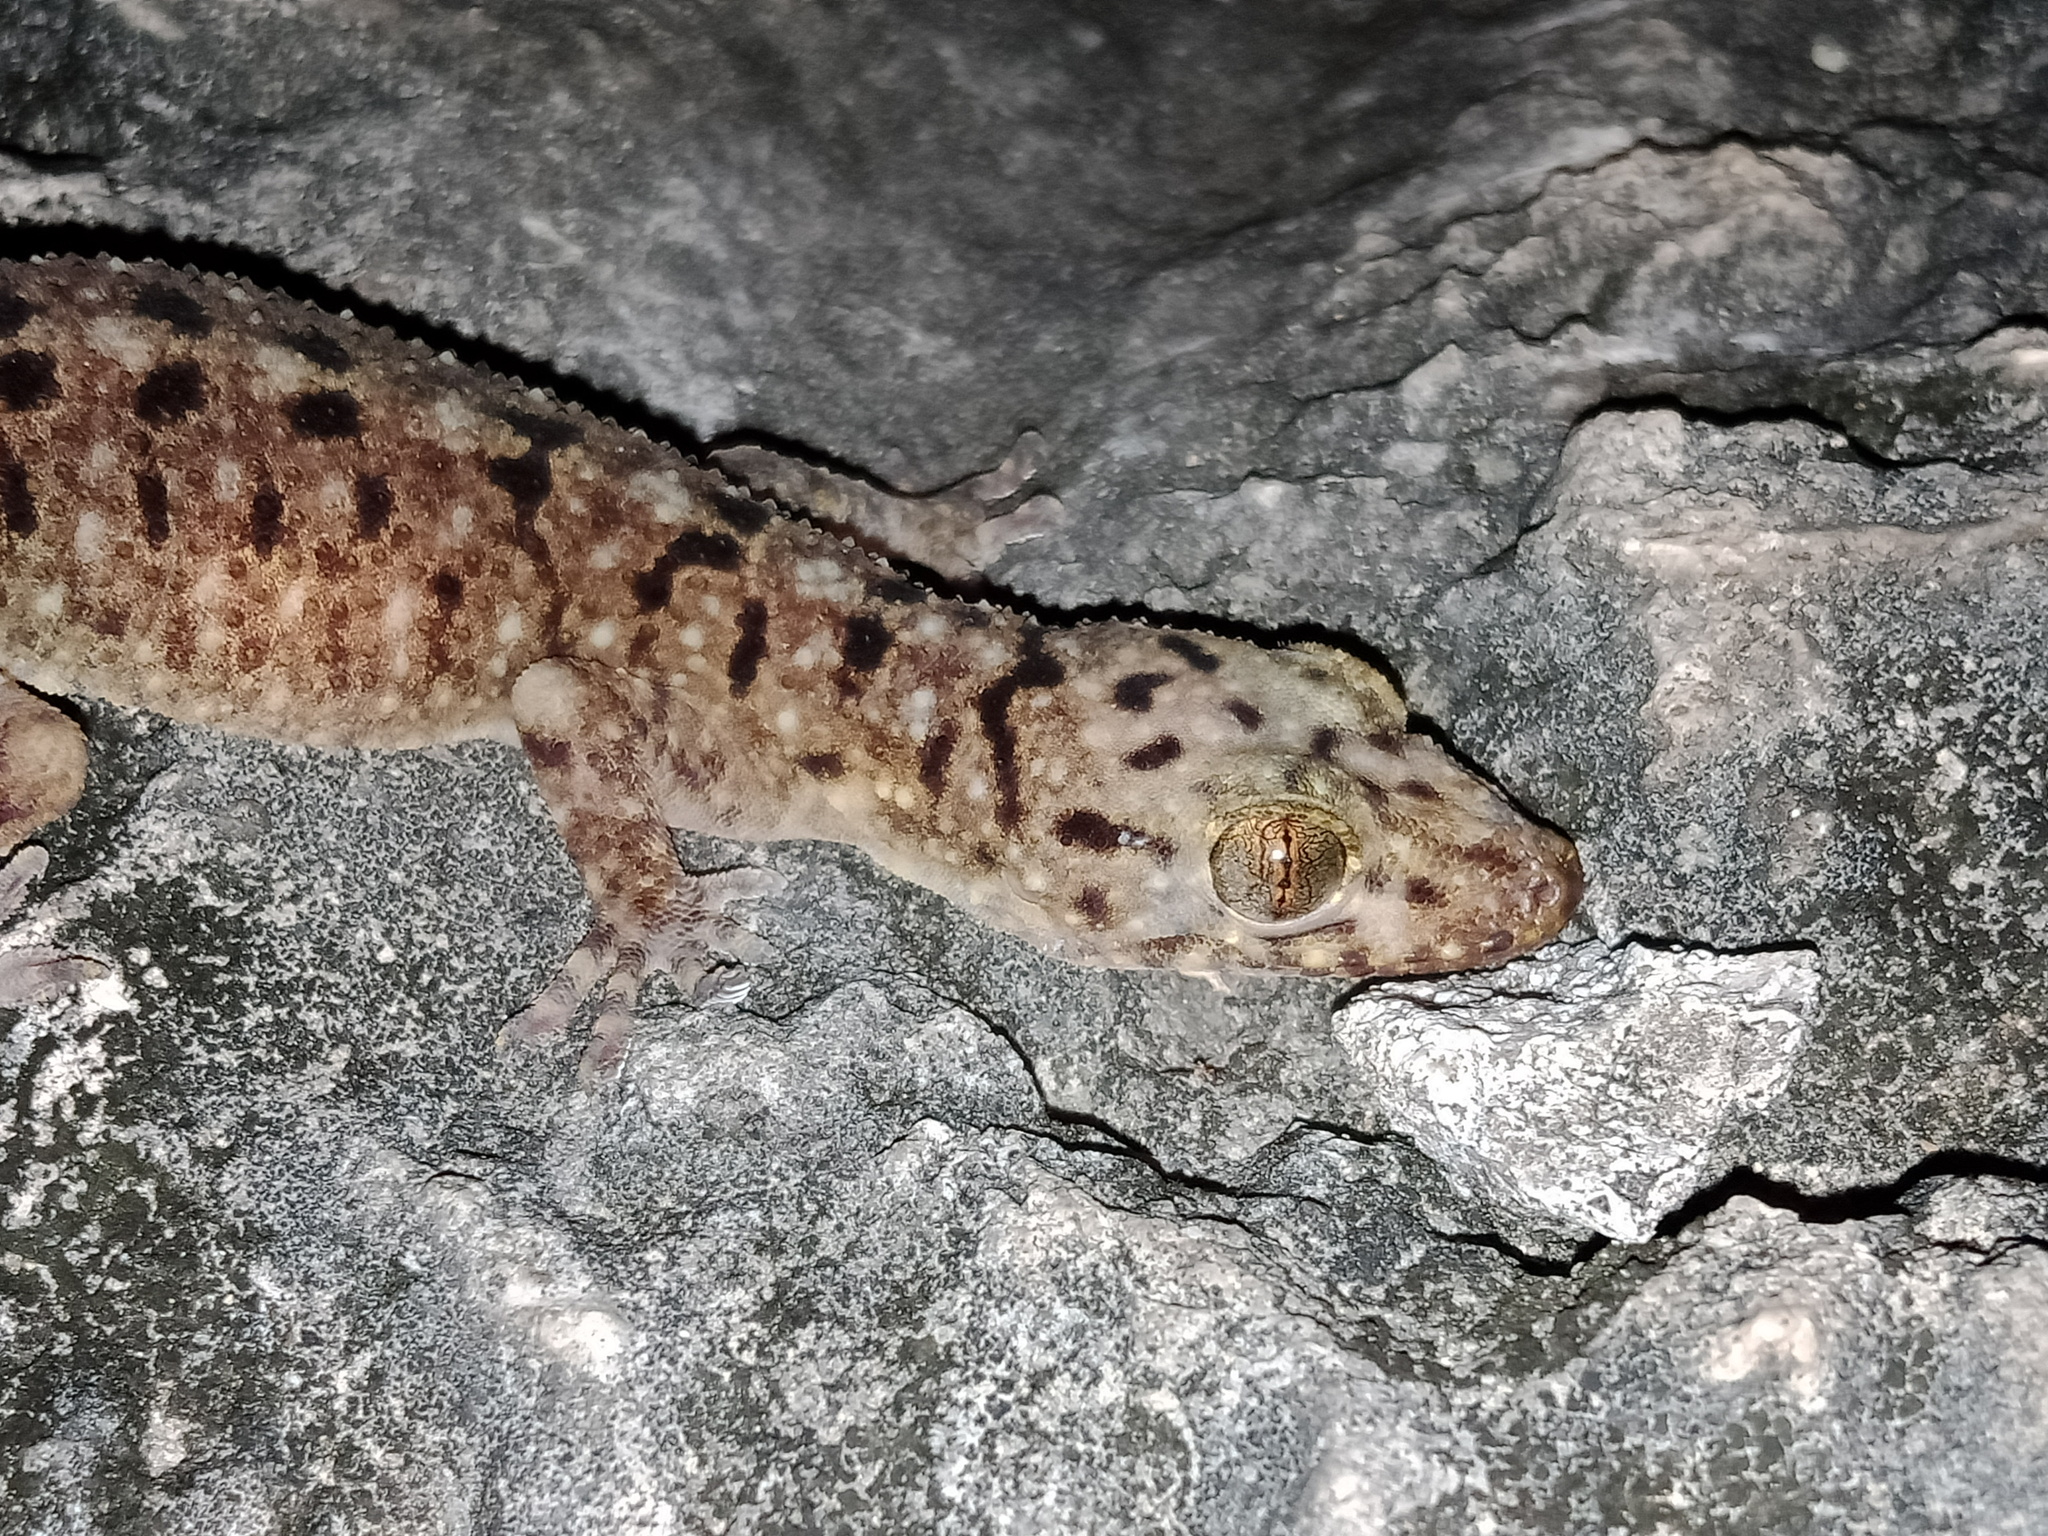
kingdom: Animalia
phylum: Chordata
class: Squamata
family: Gekkonidae
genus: Gekko
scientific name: Gekko monarchus
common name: Spotted house gecko
